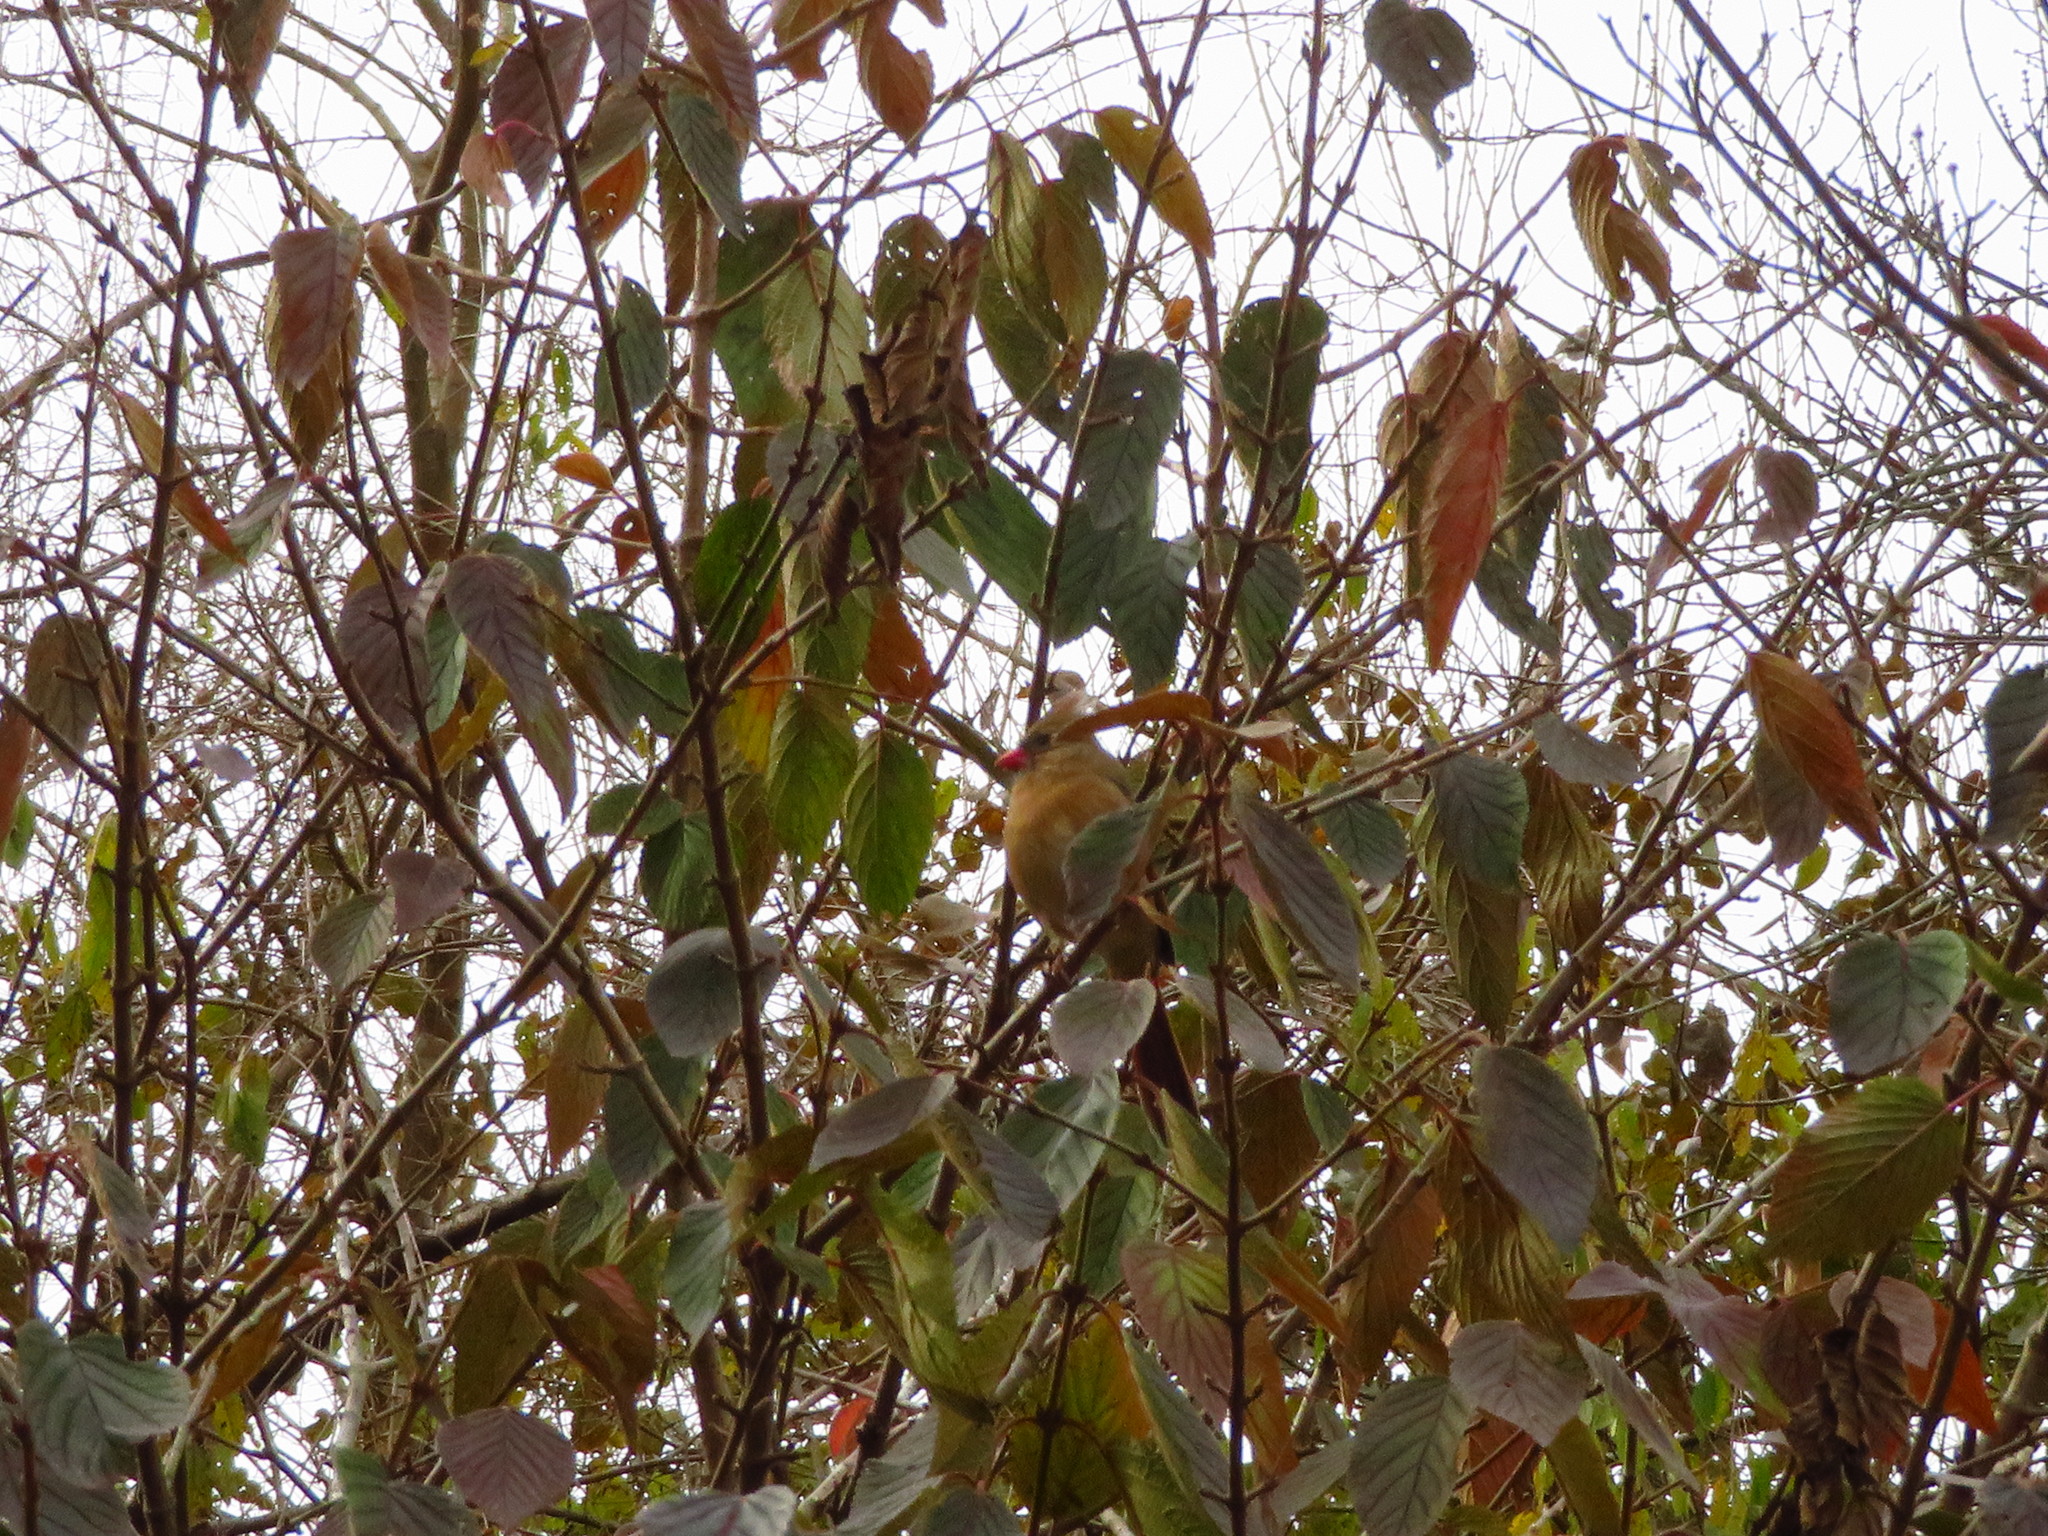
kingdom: Animalia
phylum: Chordata
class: Aves
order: Passeriformes
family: Cardinalidae
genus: Cardinalis
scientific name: Cardinalis cardinalis
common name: Northern cardinal
